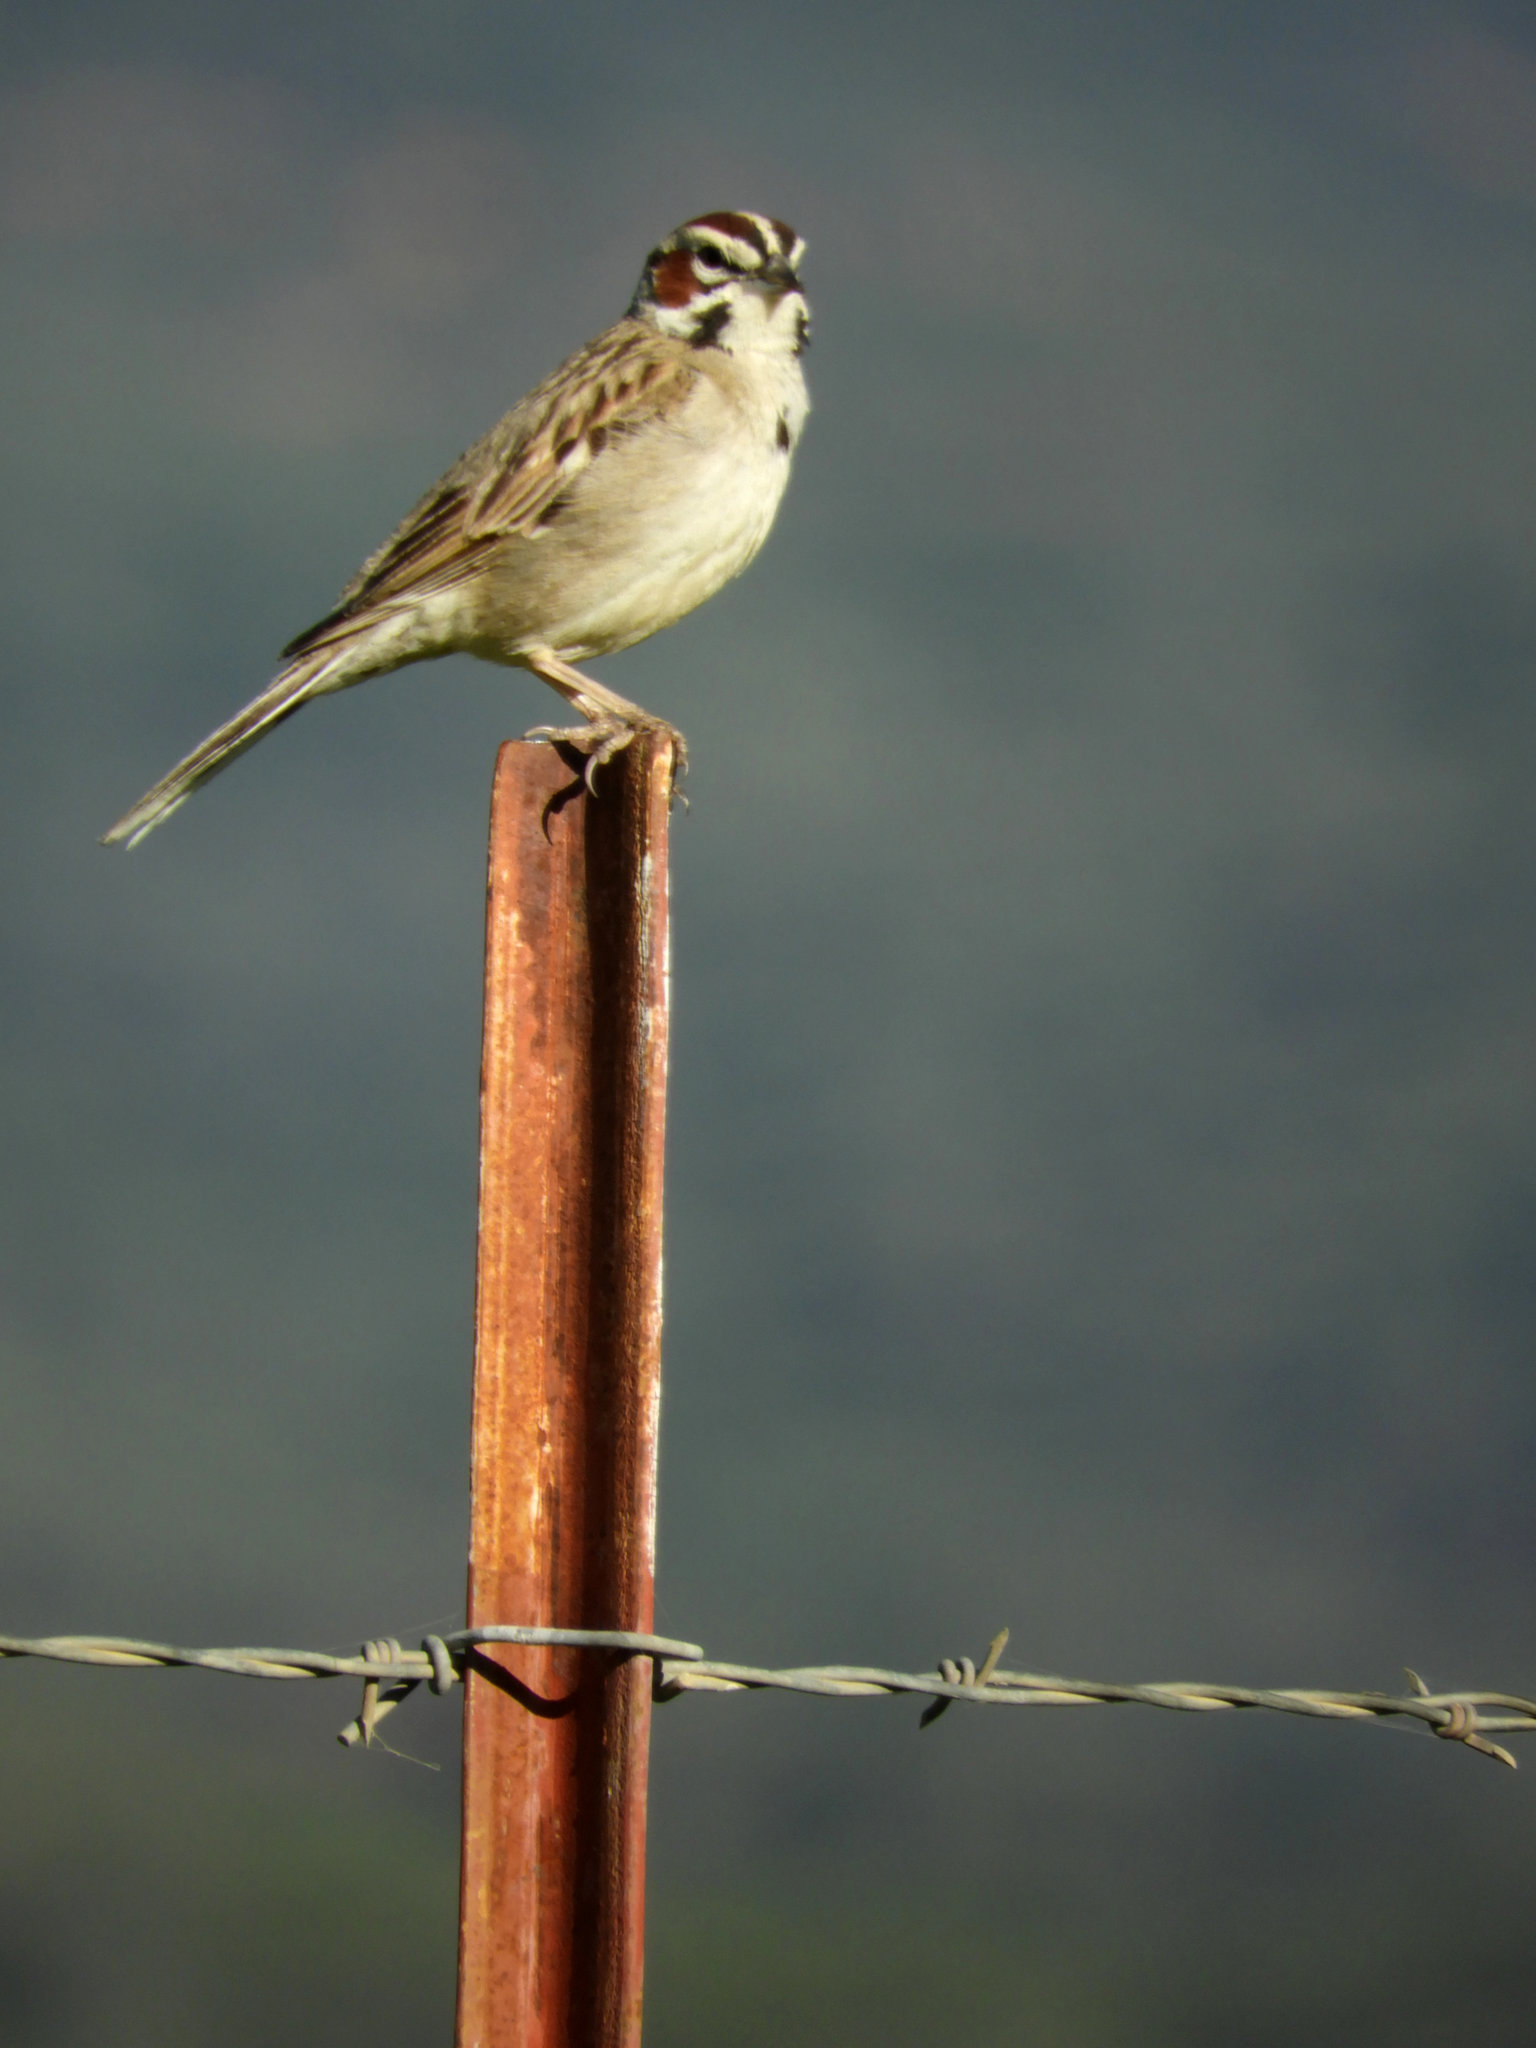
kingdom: Animalia
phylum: Chordata
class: Aves
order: Passeriformes
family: Passerellidae
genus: Chondestes
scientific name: Chondestes grammacus
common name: Lark sparrow
